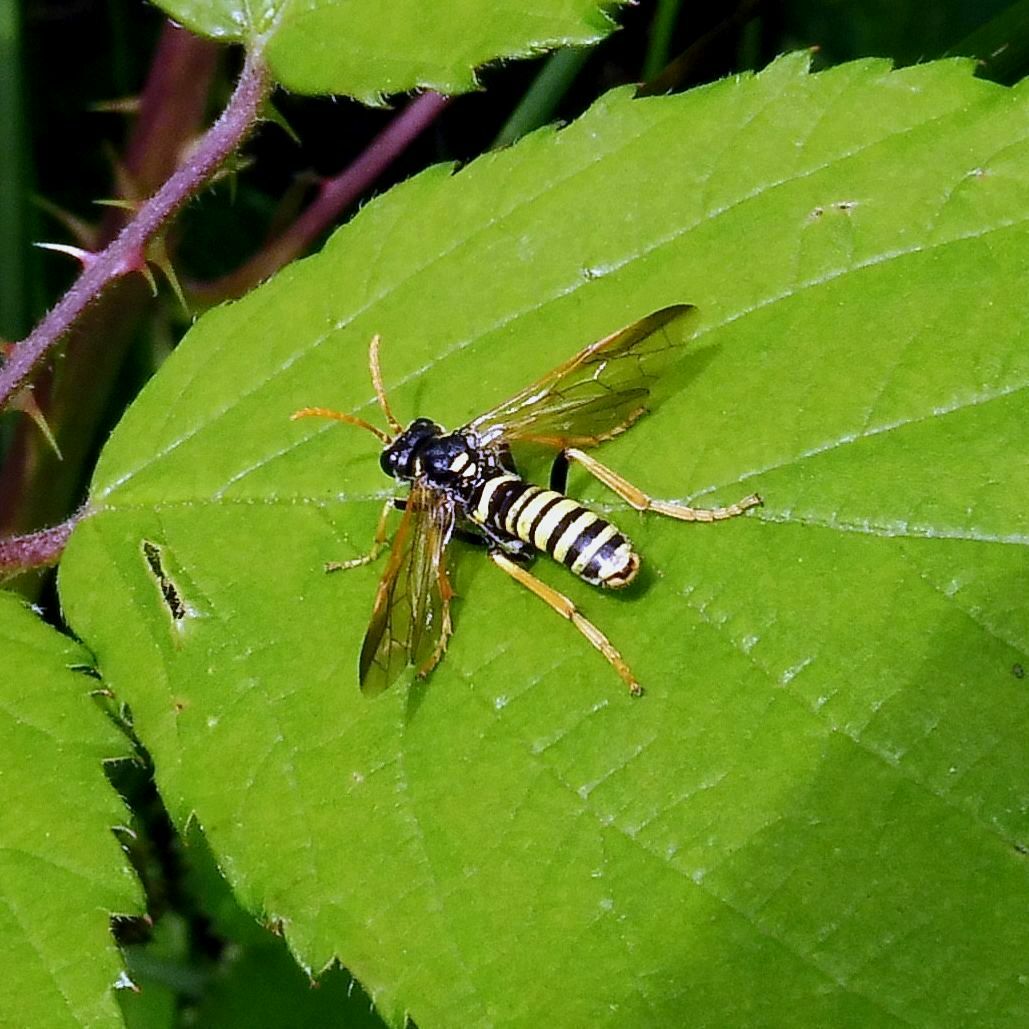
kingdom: Animalia
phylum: Arthropoda
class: Insecta
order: Hymenoptera
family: Tenthredinidae
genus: Tenthredo
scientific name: Tenthredo scrophulariae
